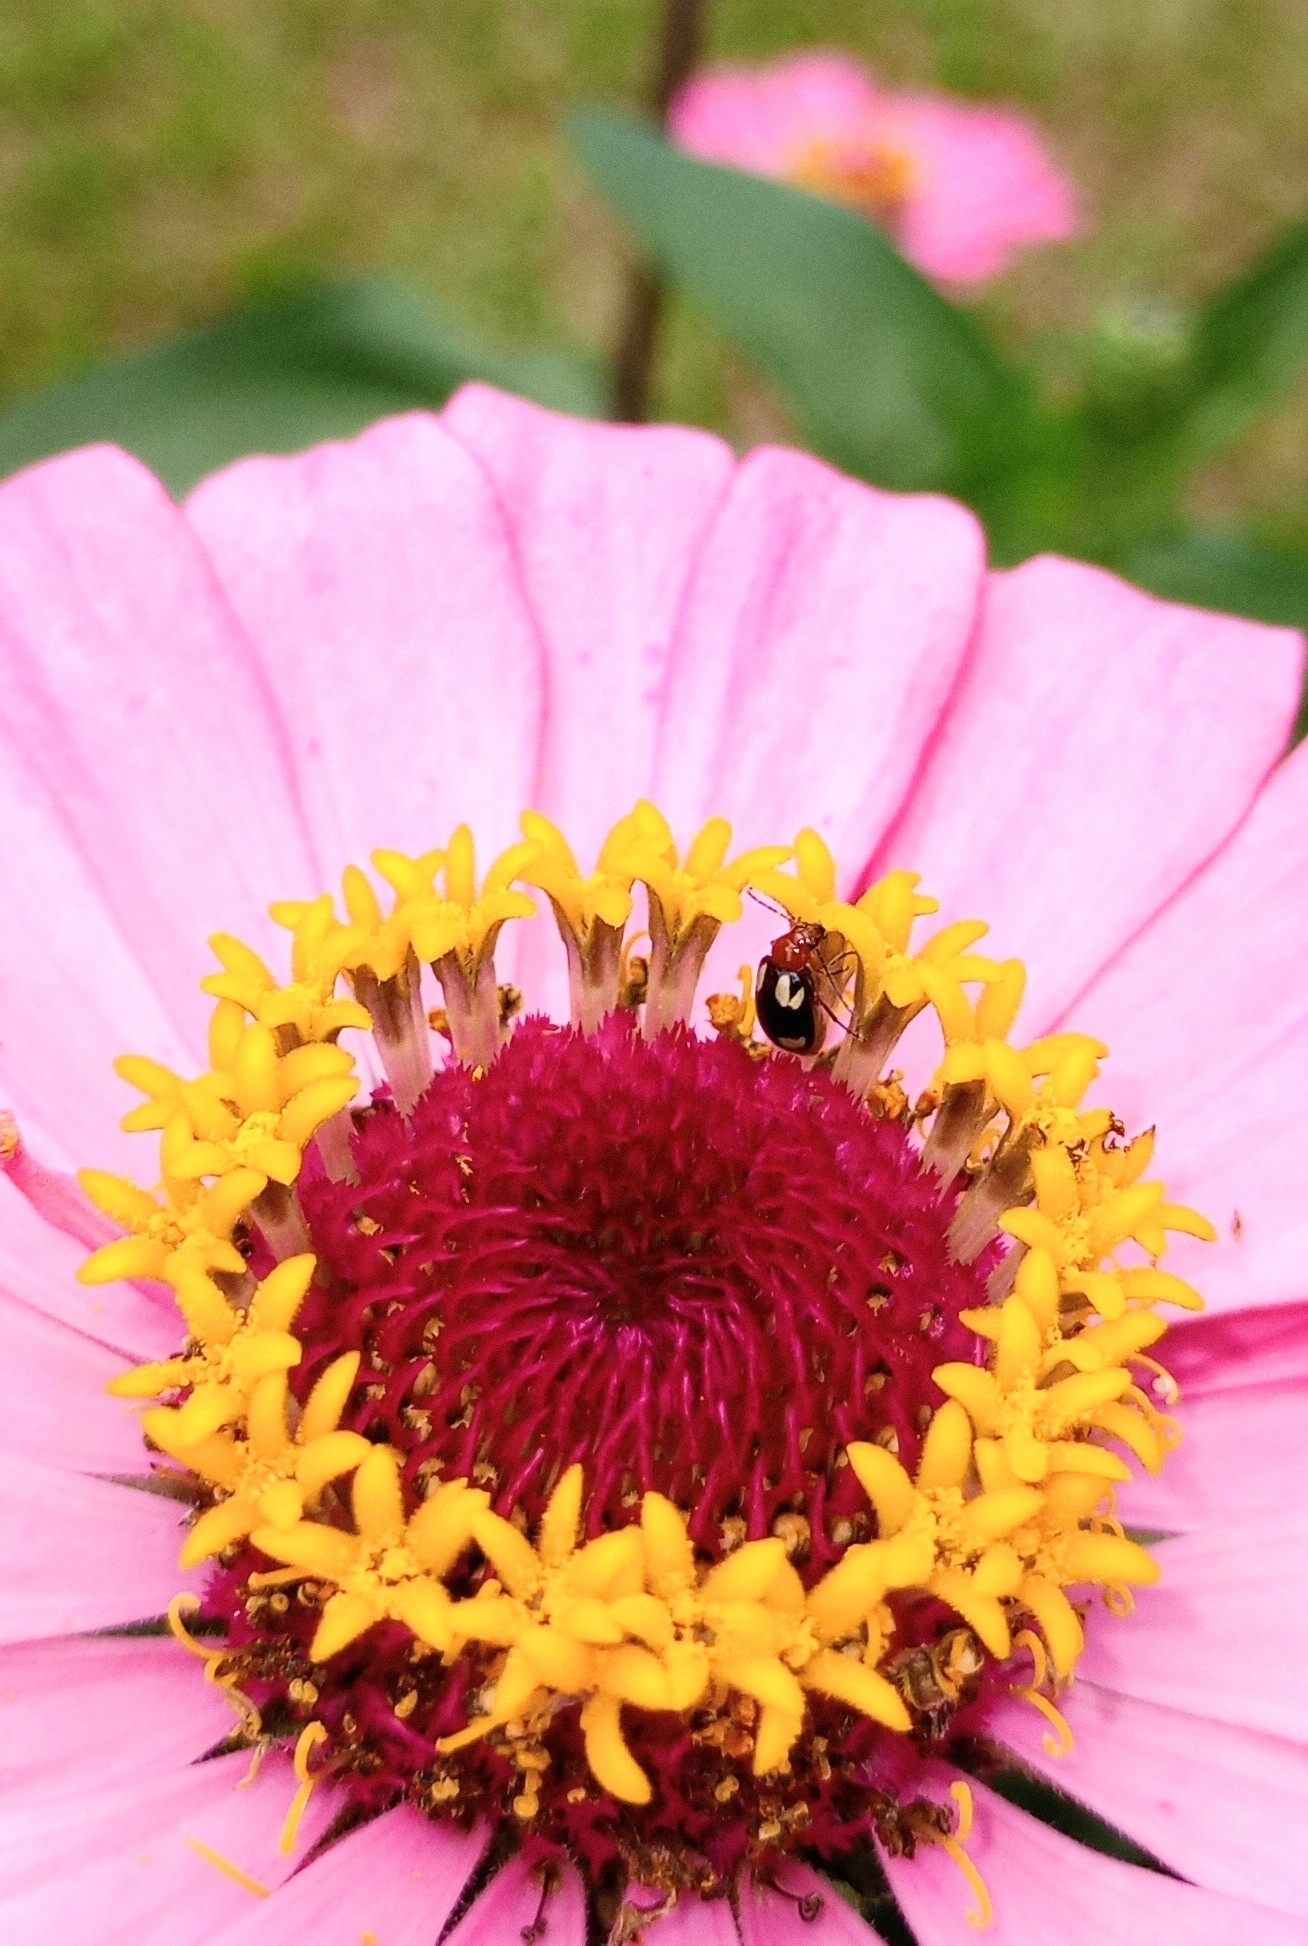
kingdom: Animalia
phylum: Arthropoda
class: Insecta
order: Coleoptera
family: Chrysomelidae
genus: Monolepta
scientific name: Monolepta signata
